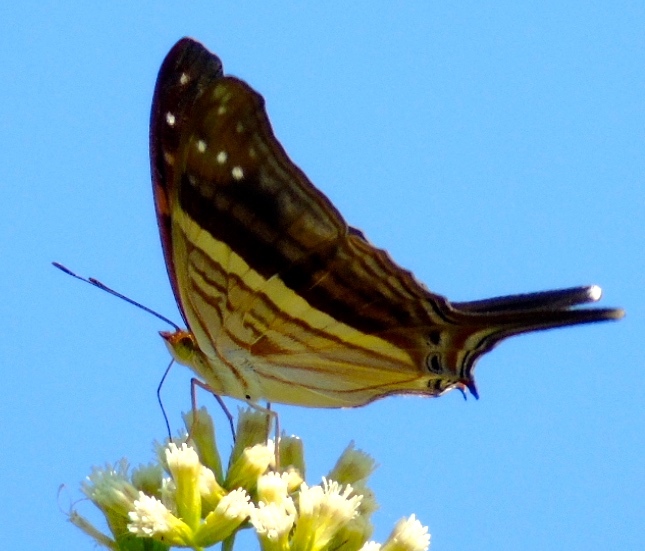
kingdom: Animalia
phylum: Arthropoda
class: Insecta
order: Lepidoptera
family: Nymphalidae
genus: Marpesia
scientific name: Marpesia chiron
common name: Many-banded daggerwing
